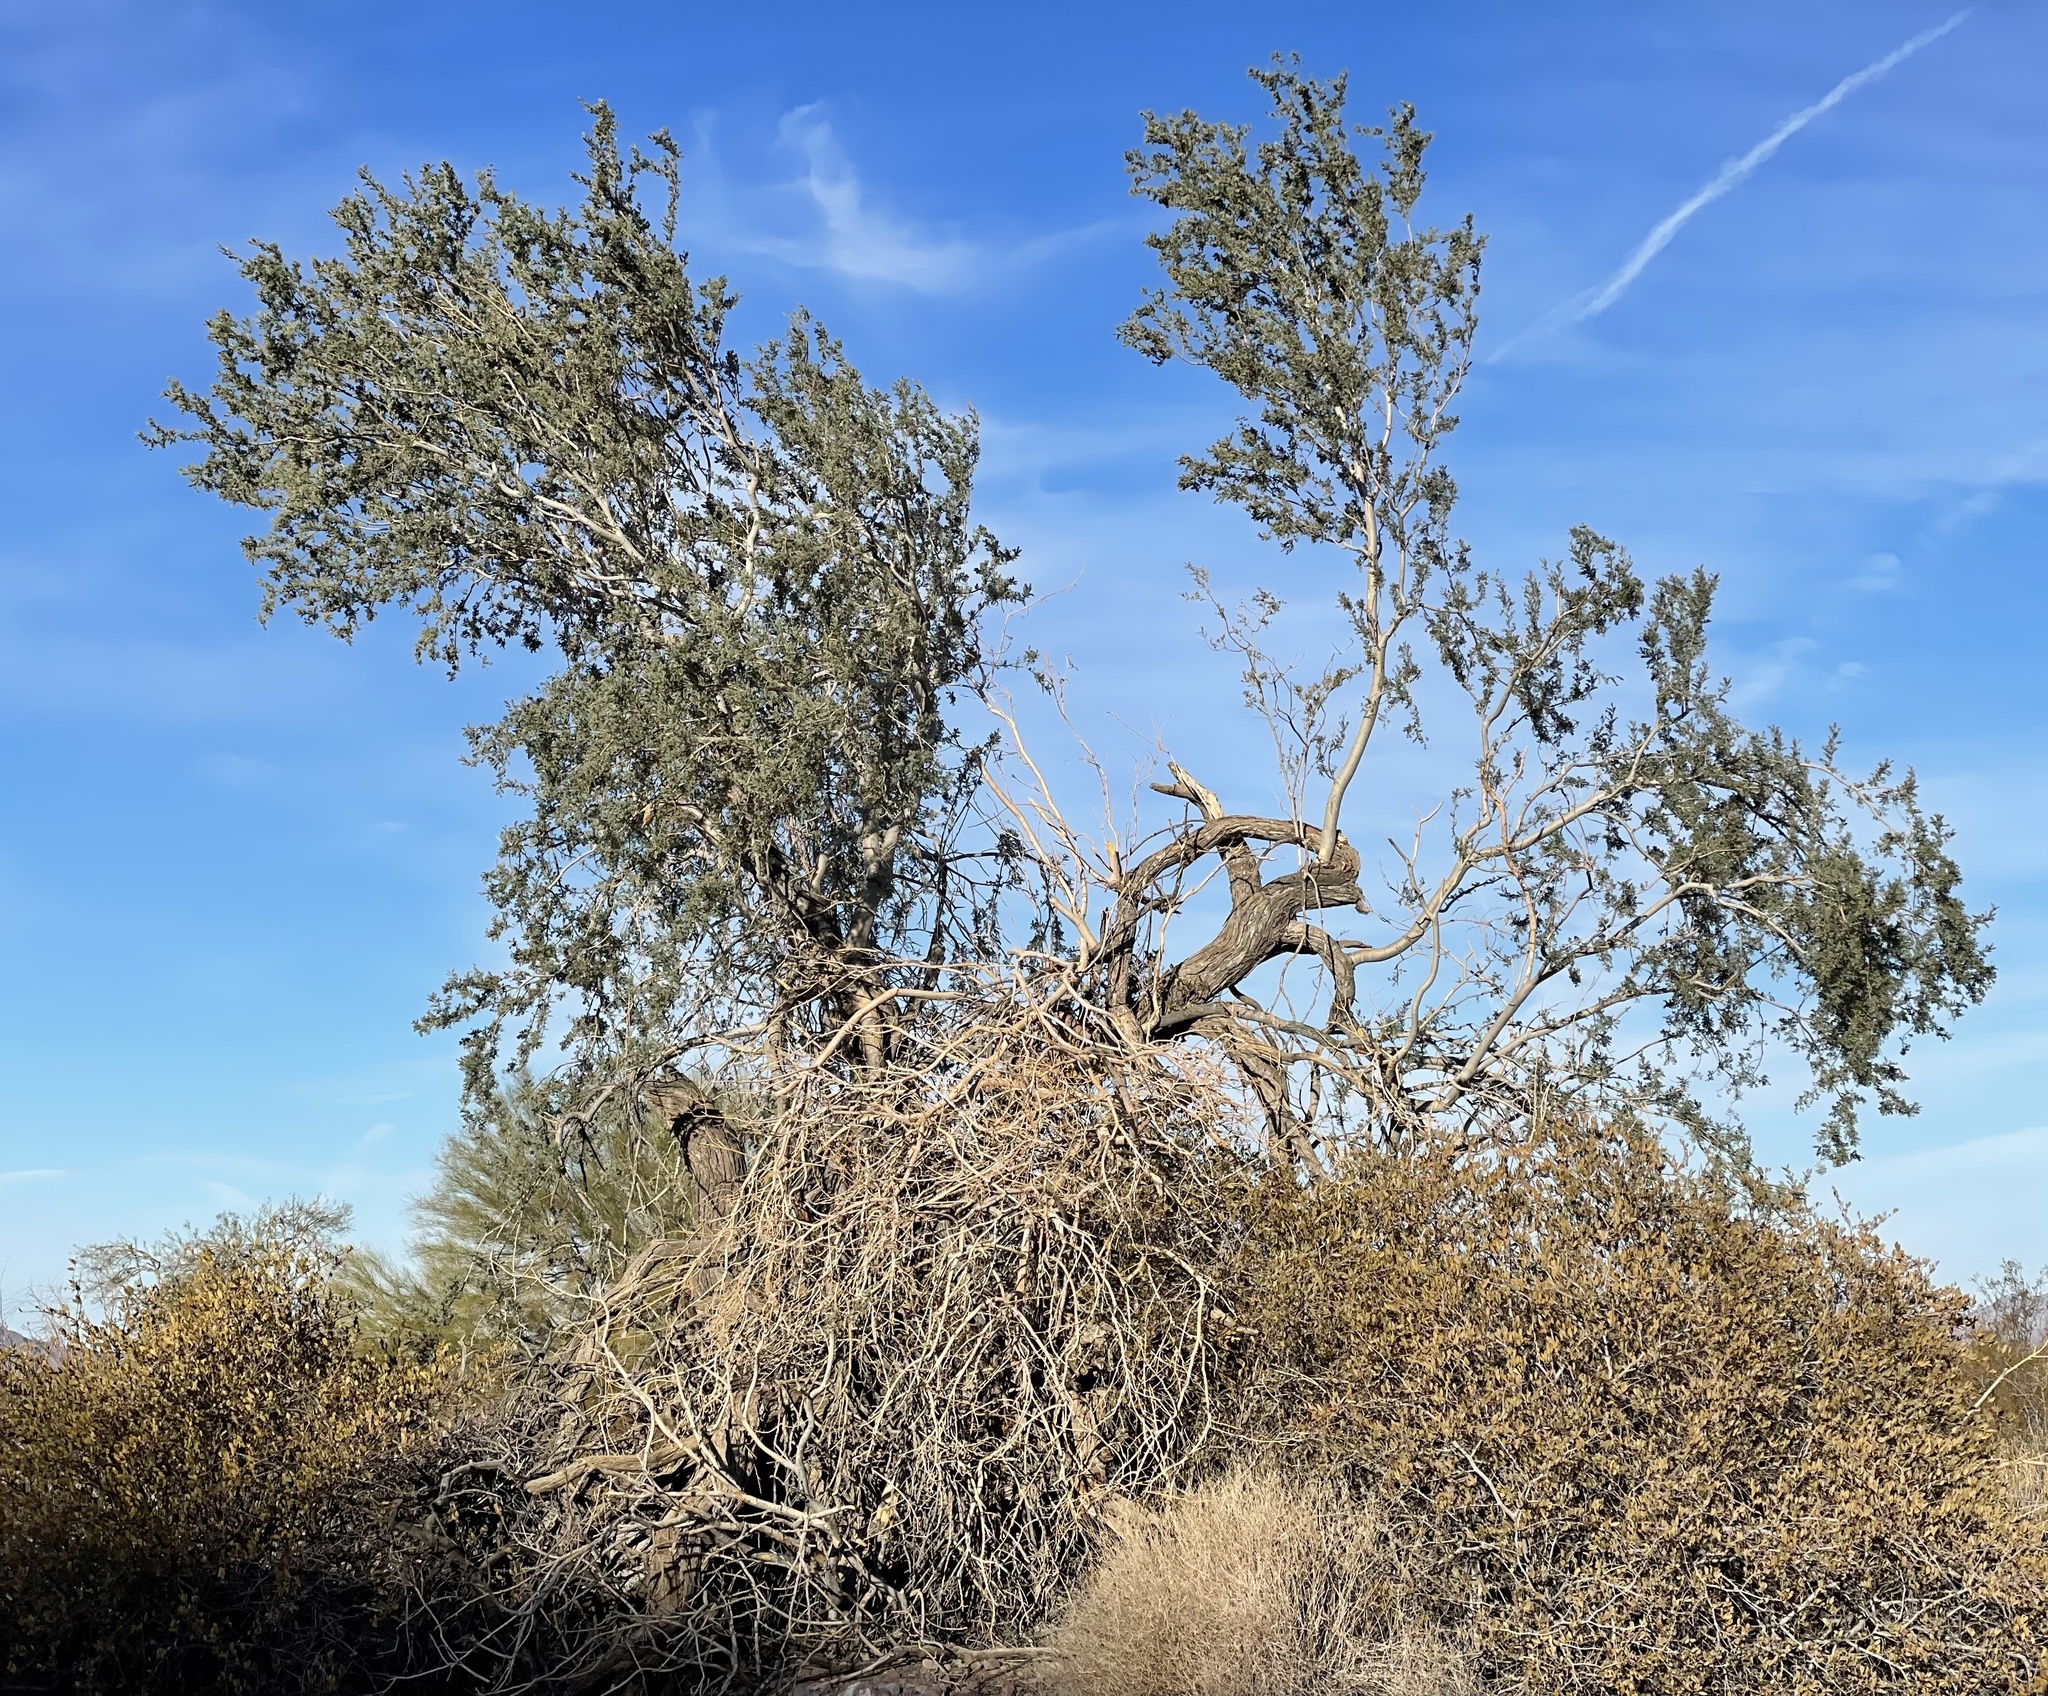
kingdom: Plantae
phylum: Tracheophyta
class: Magnoliopsida
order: Fabales
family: Fabaceae
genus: Olneya
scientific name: Olneya tesota
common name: Desert ironwood
